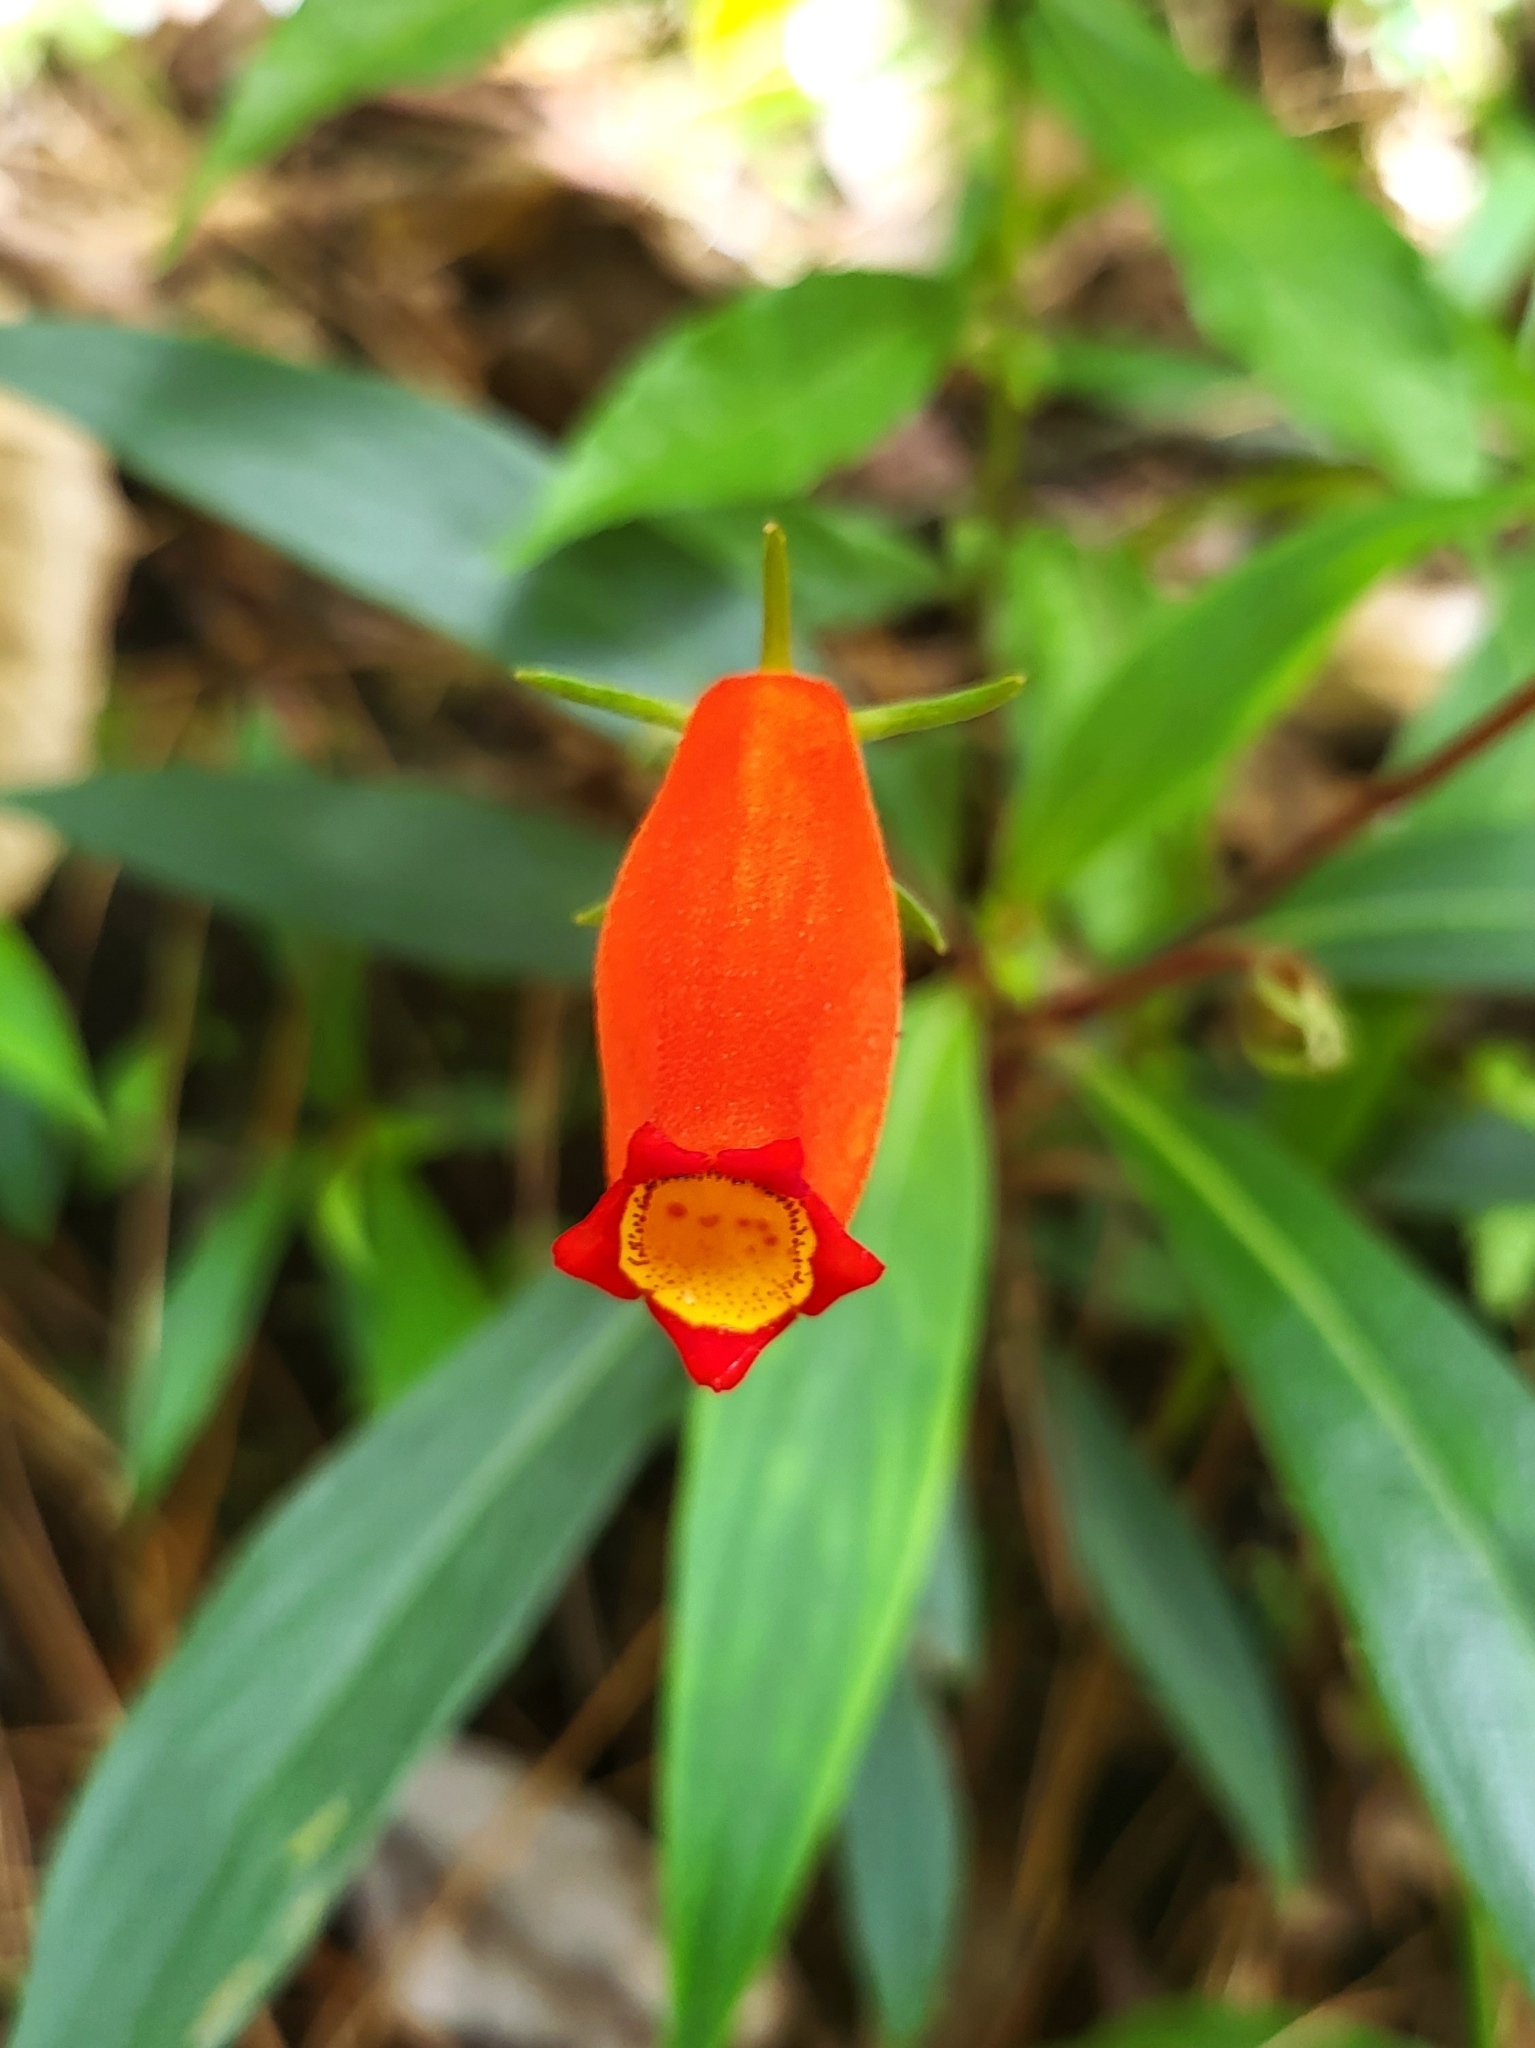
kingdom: Plantae
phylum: Tracheophyta
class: Magnoliopsida
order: Lamiales
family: Gesneriaceae
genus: Seemannia
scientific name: Seemannia sylvatica
